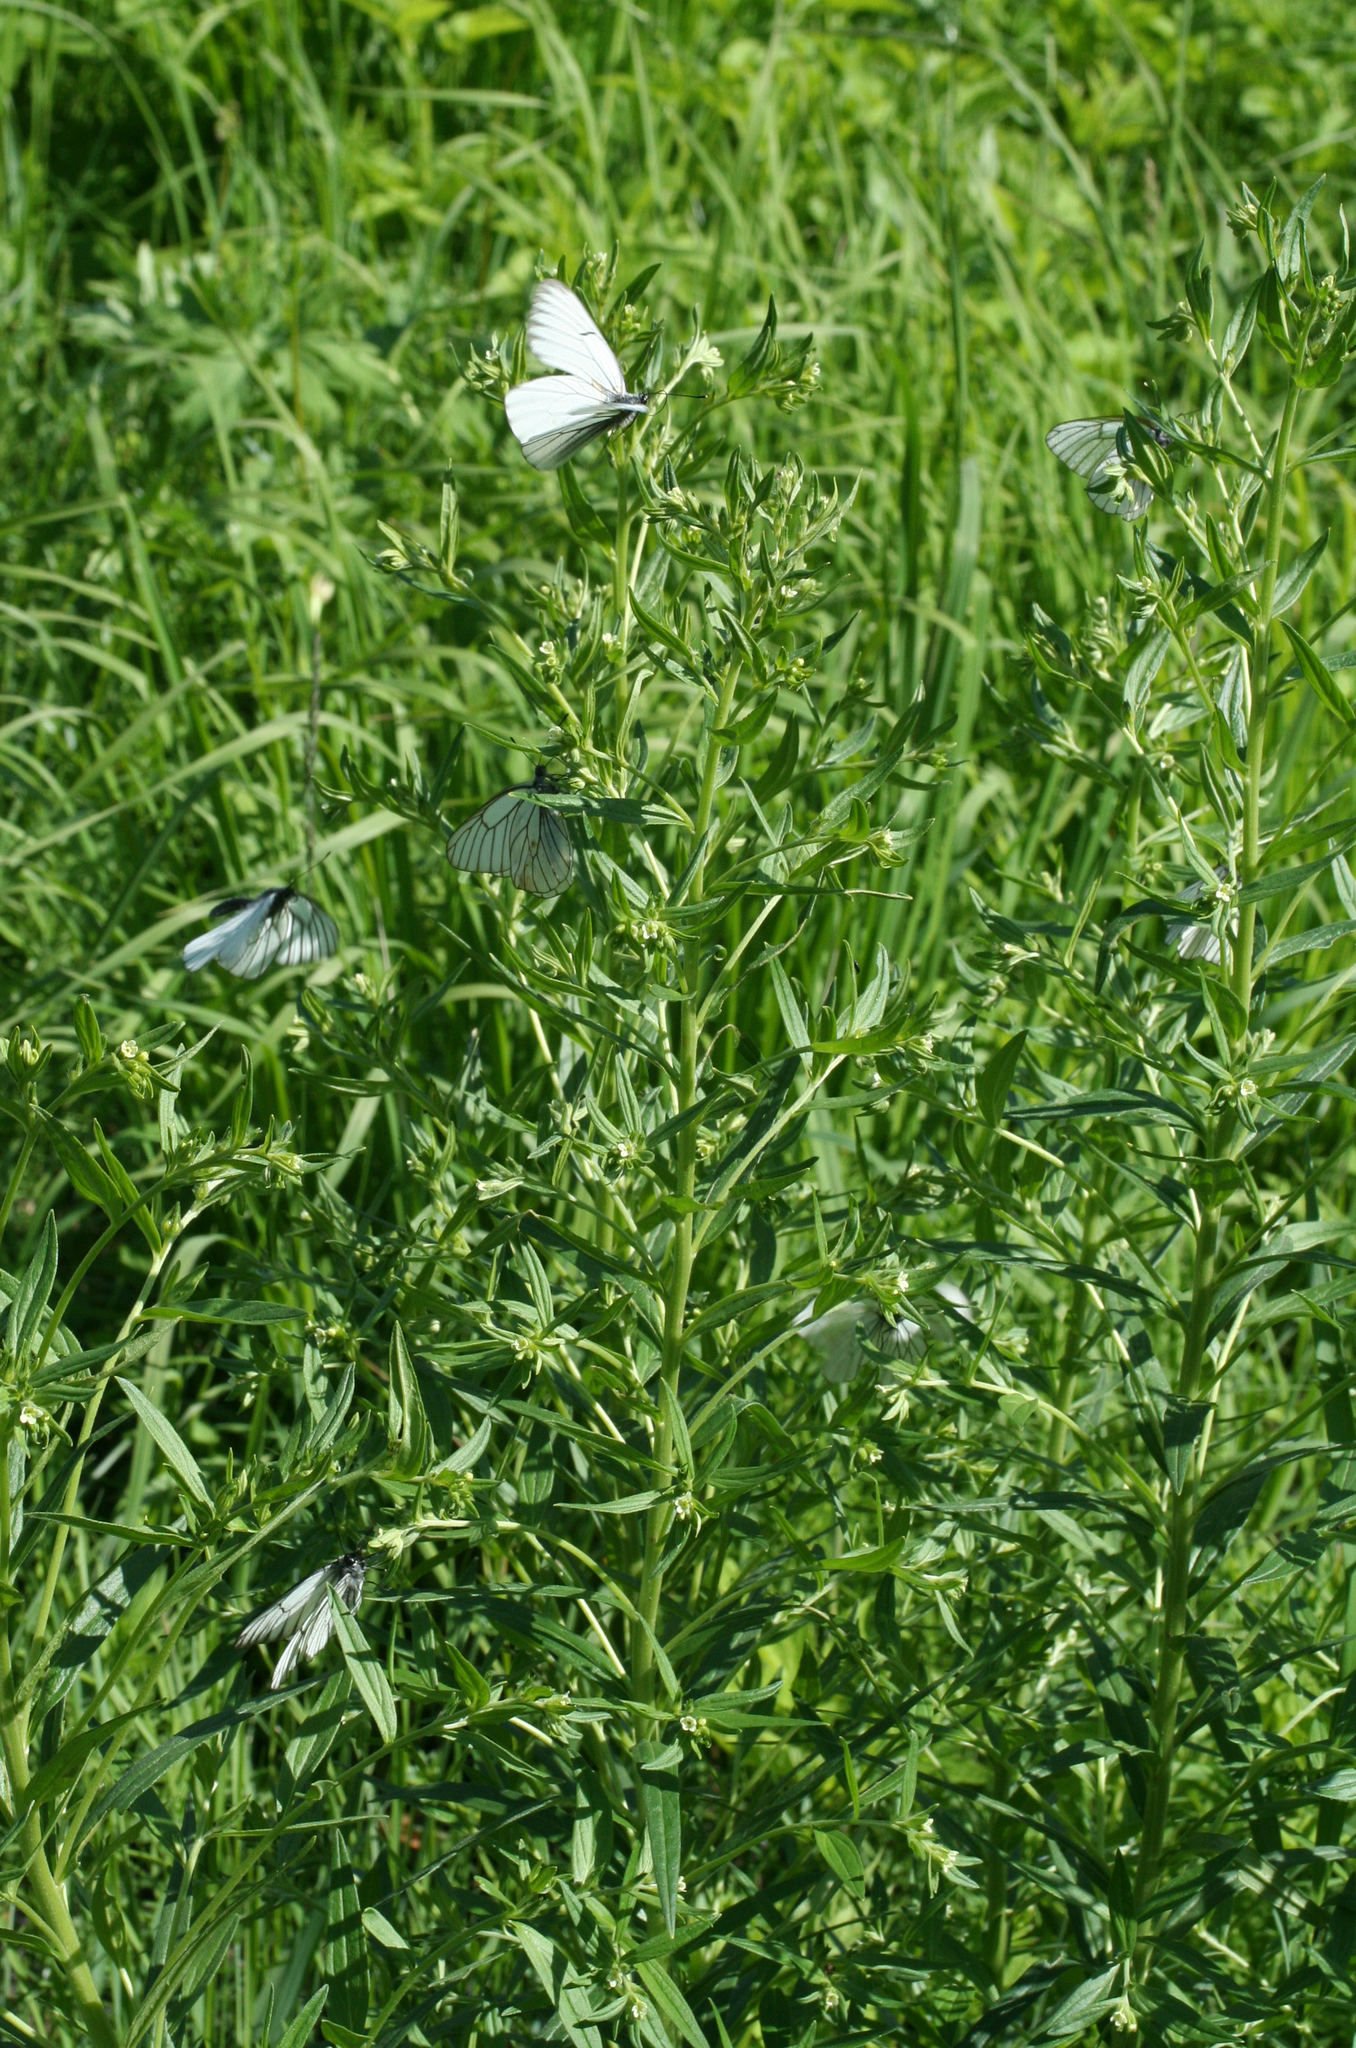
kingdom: Plantae
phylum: Tracheophyta
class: Magnoliopsida
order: Boraginales
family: Boraginaceae
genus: Lithospermum
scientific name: Lithospermum officinale
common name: Common gromwell
